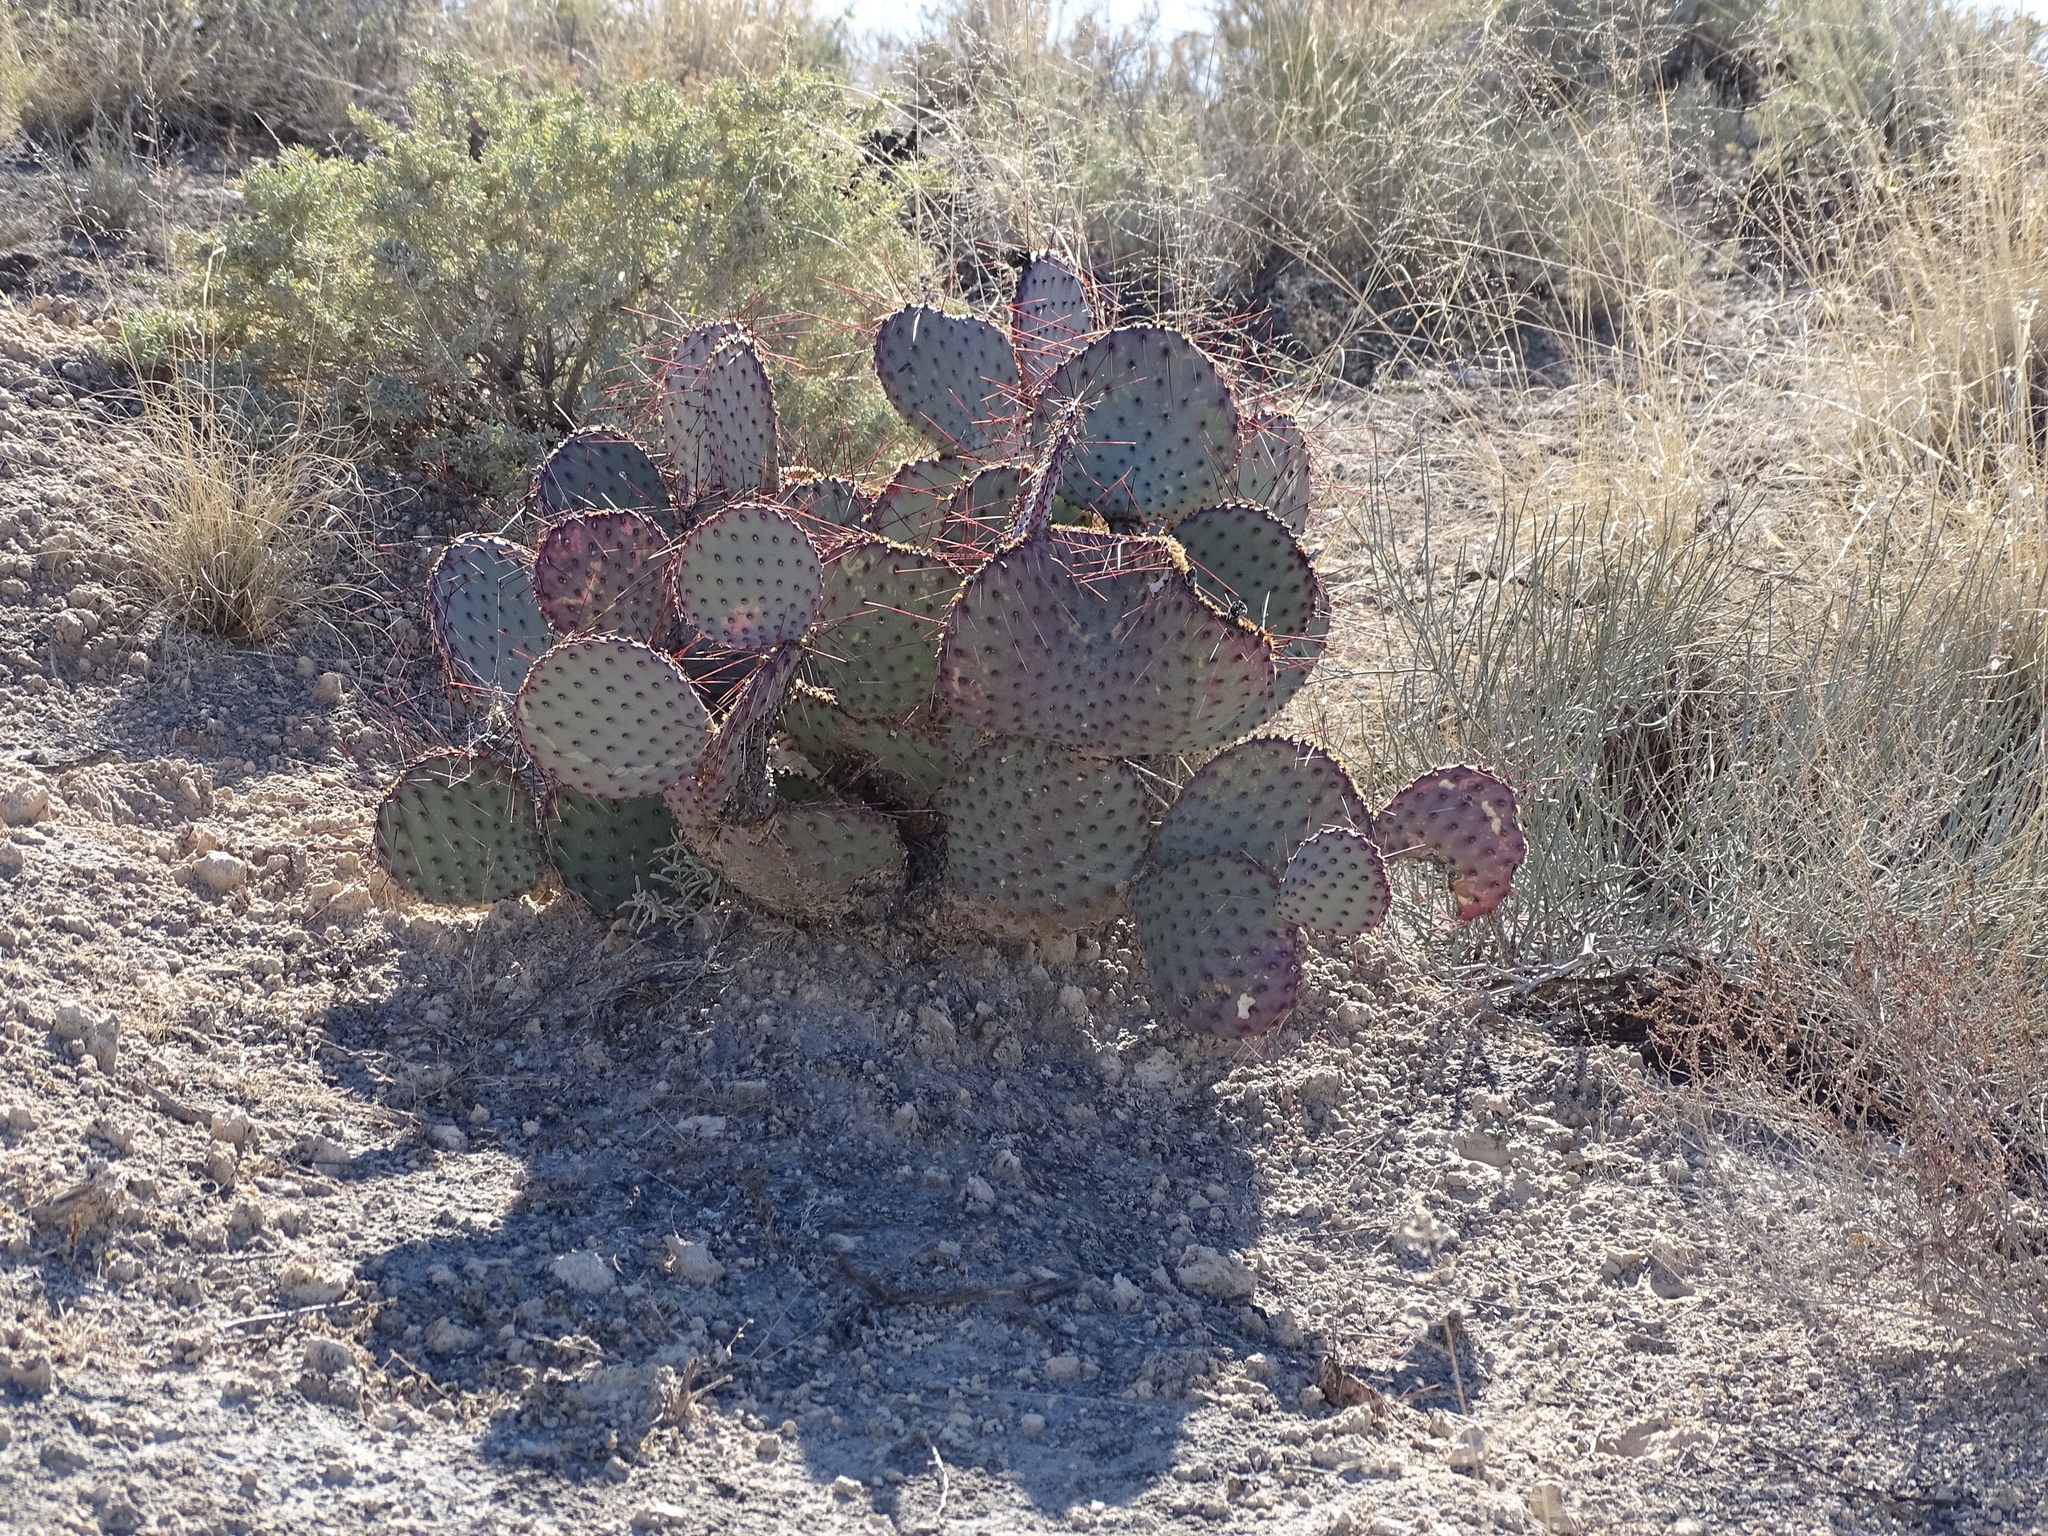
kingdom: Plantae
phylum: Tracheophyta
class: Magnoliopsida
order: Caryophyllales
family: Cactaceae
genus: Opuntia
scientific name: Opuntia macrocentra
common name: Purple prickly-pear
